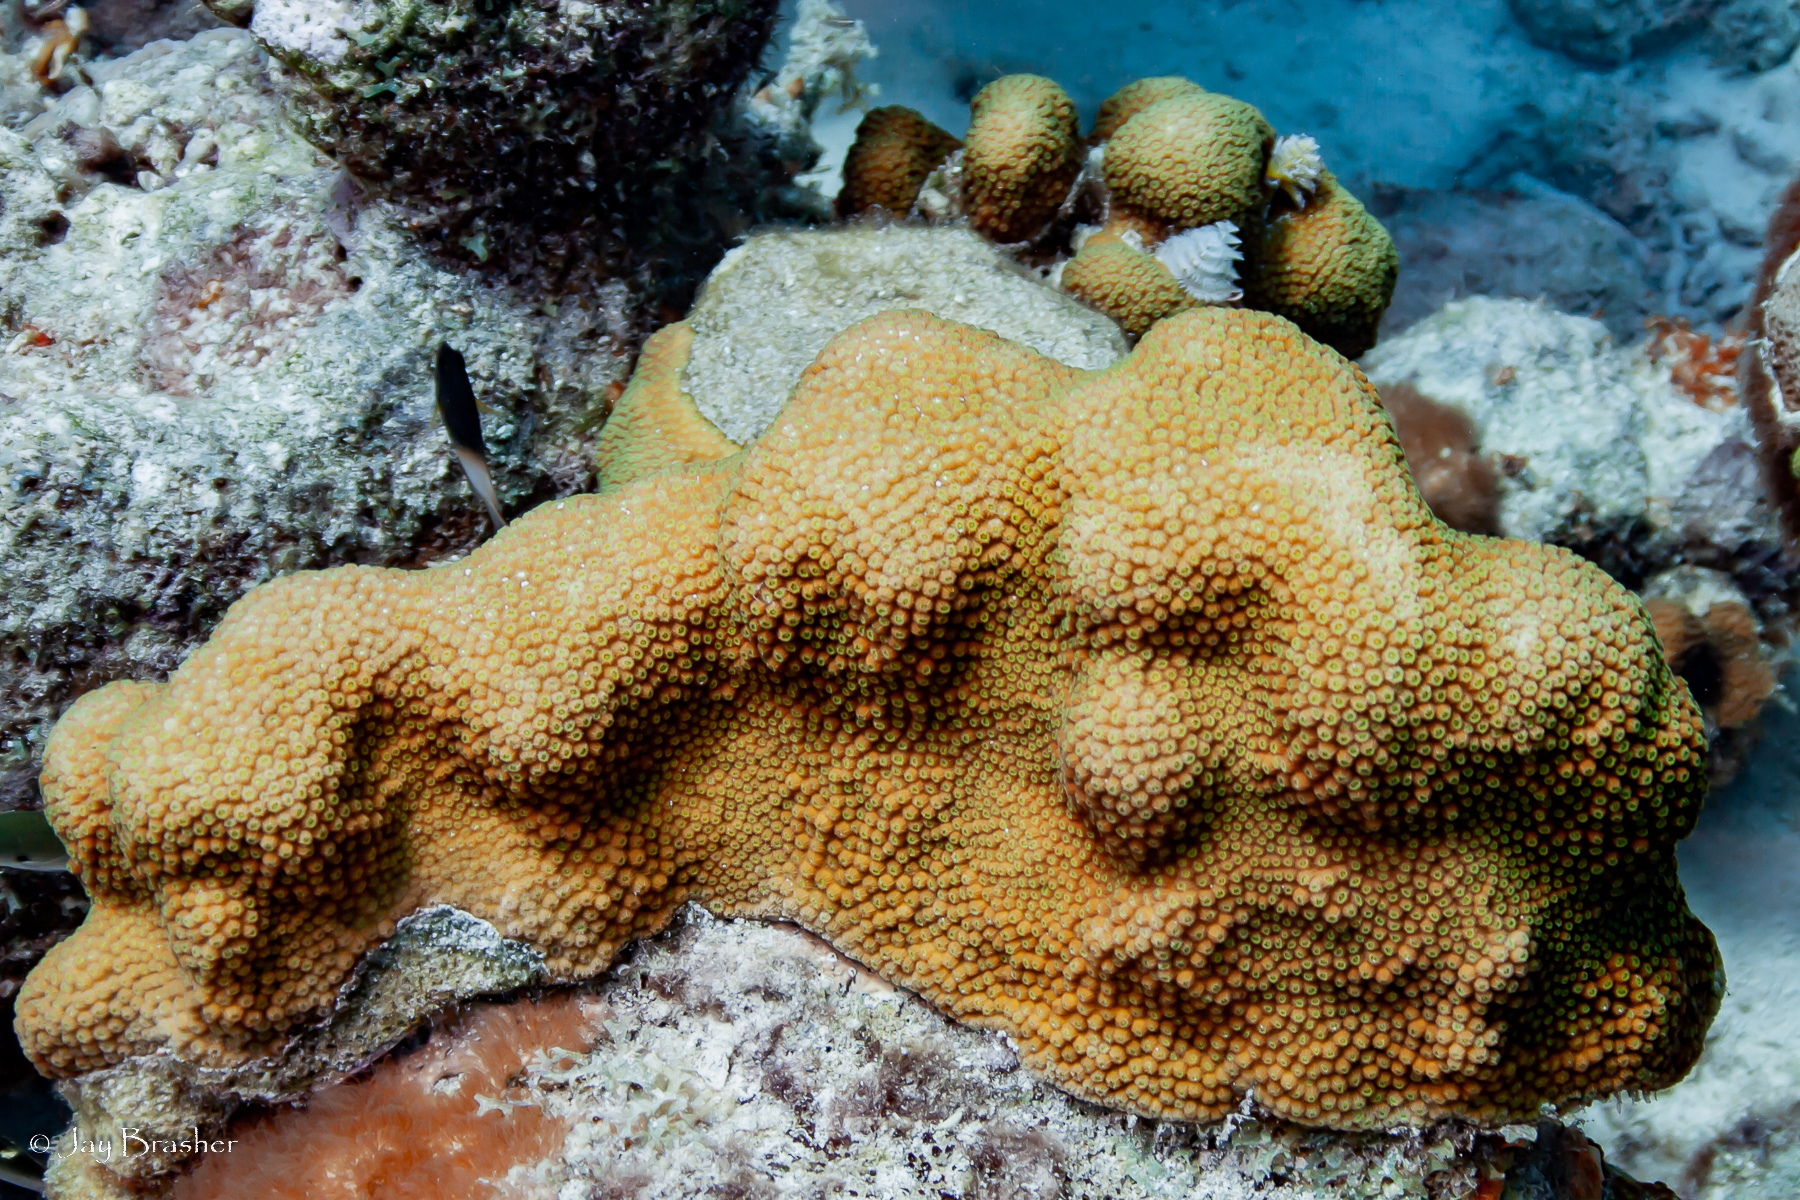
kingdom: Animalia
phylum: Cnidaria
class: Anthozoa
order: Scleractinia
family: Merulinidae
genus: Orbicella
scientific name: Orbicella annularis
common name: Boulder star coral
